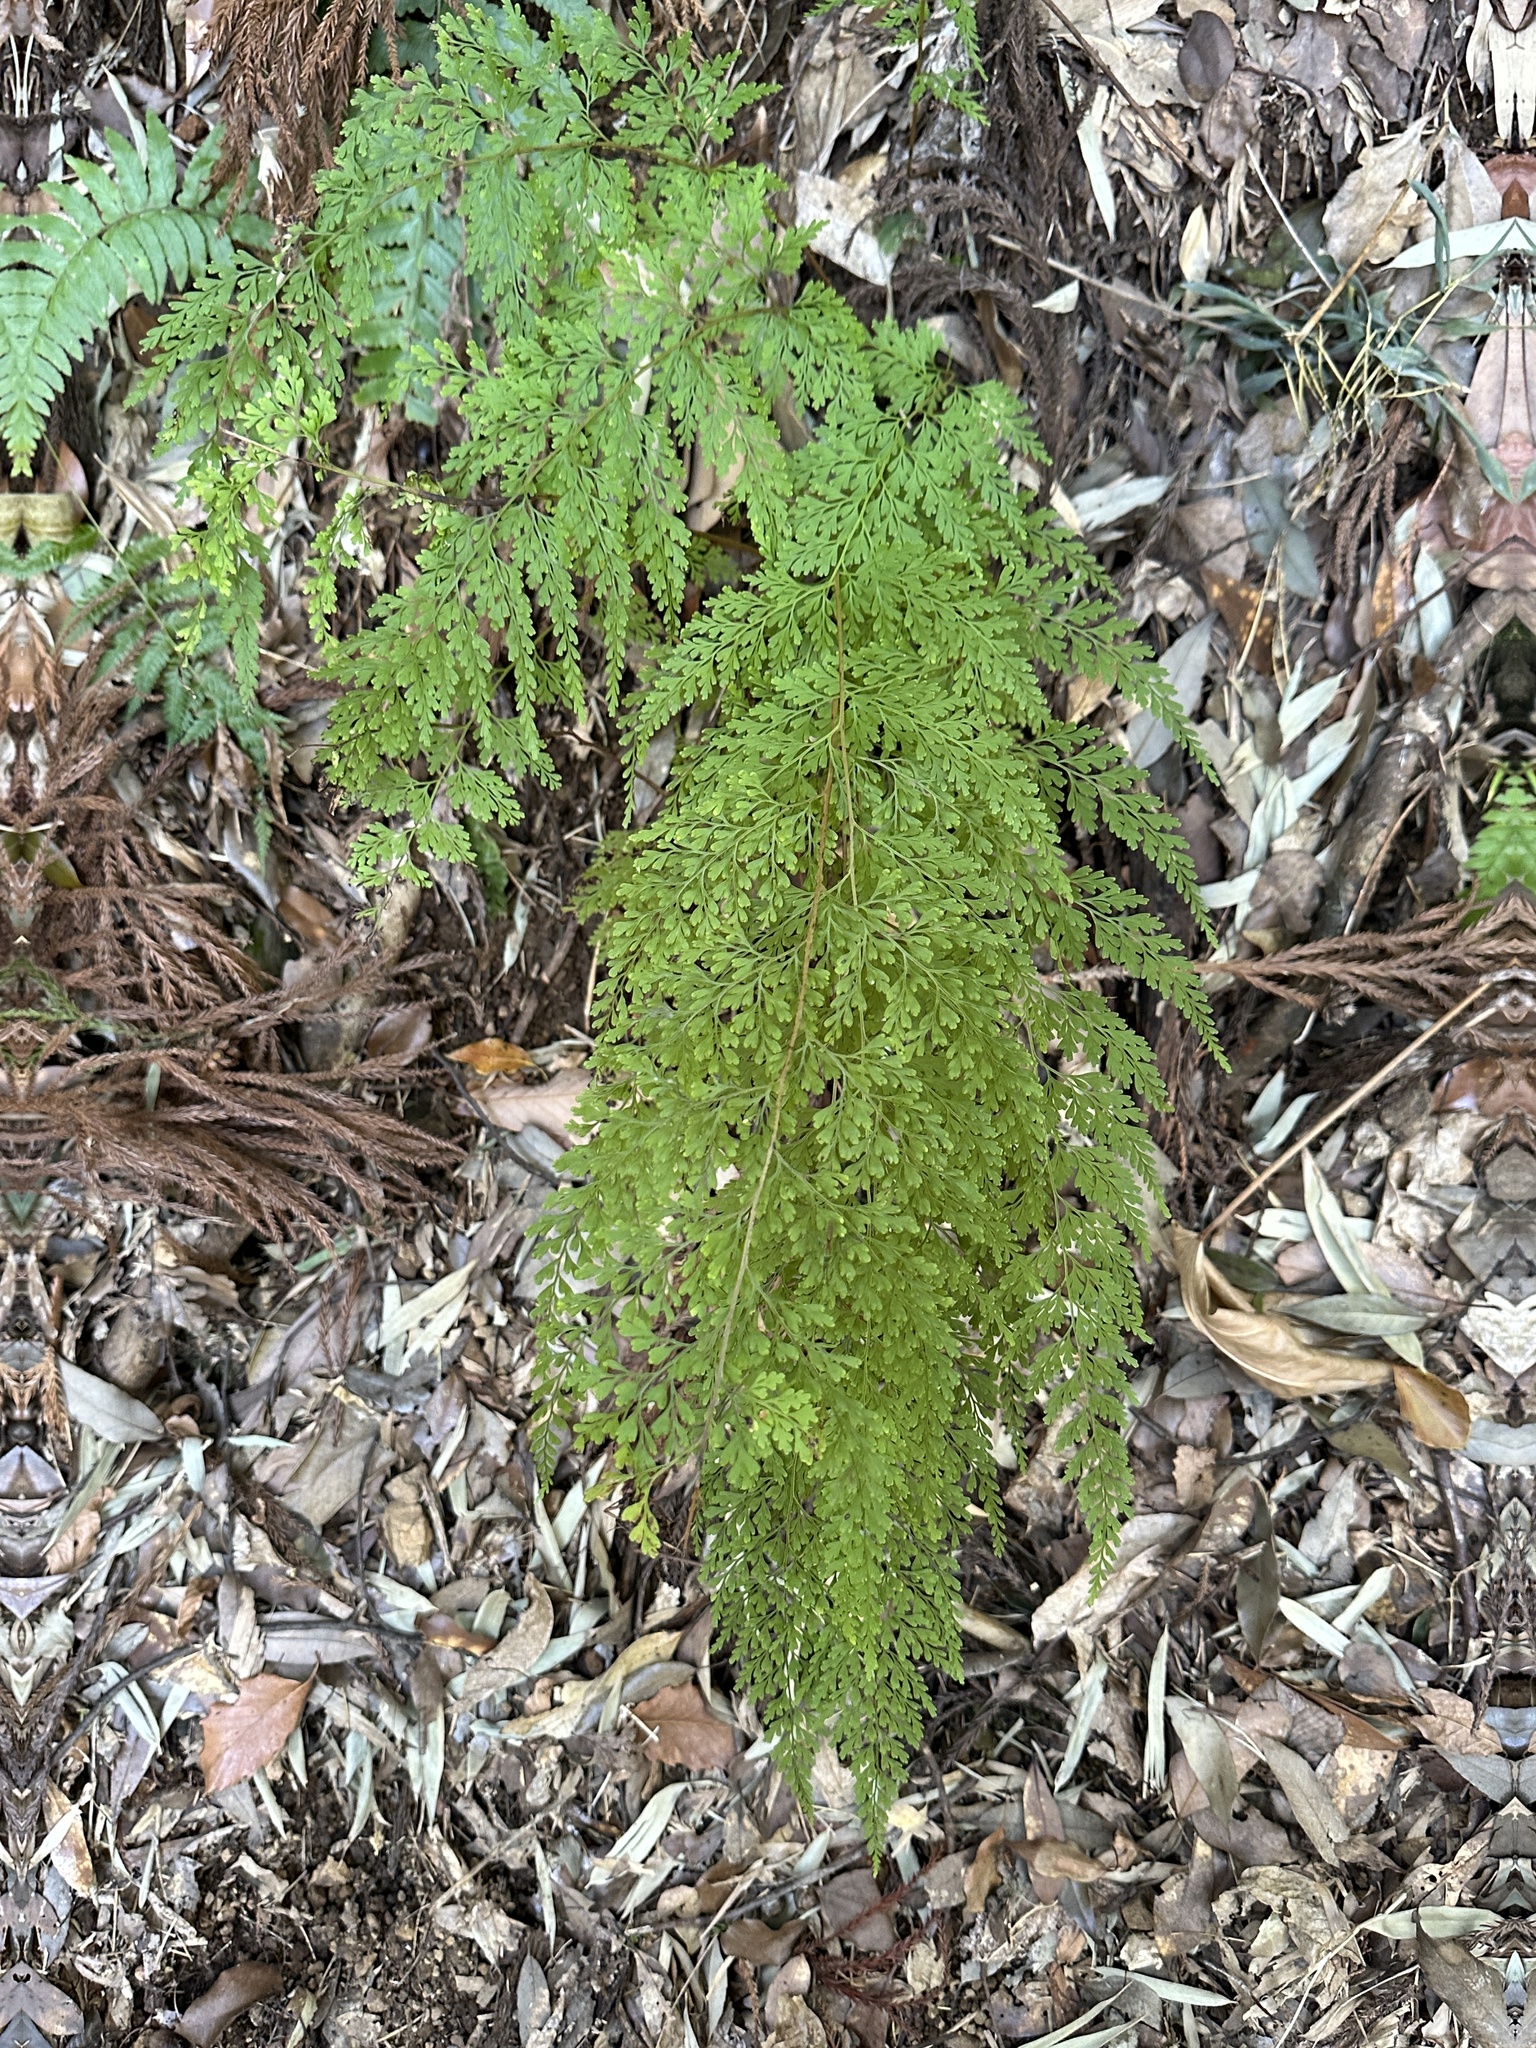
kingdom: Plantae
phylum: Tracheophyta
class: Polypodiopsida
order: Polypodiales
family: Lindsaeaceae
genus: Odontosoria
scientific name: Odontosoria chinensis
